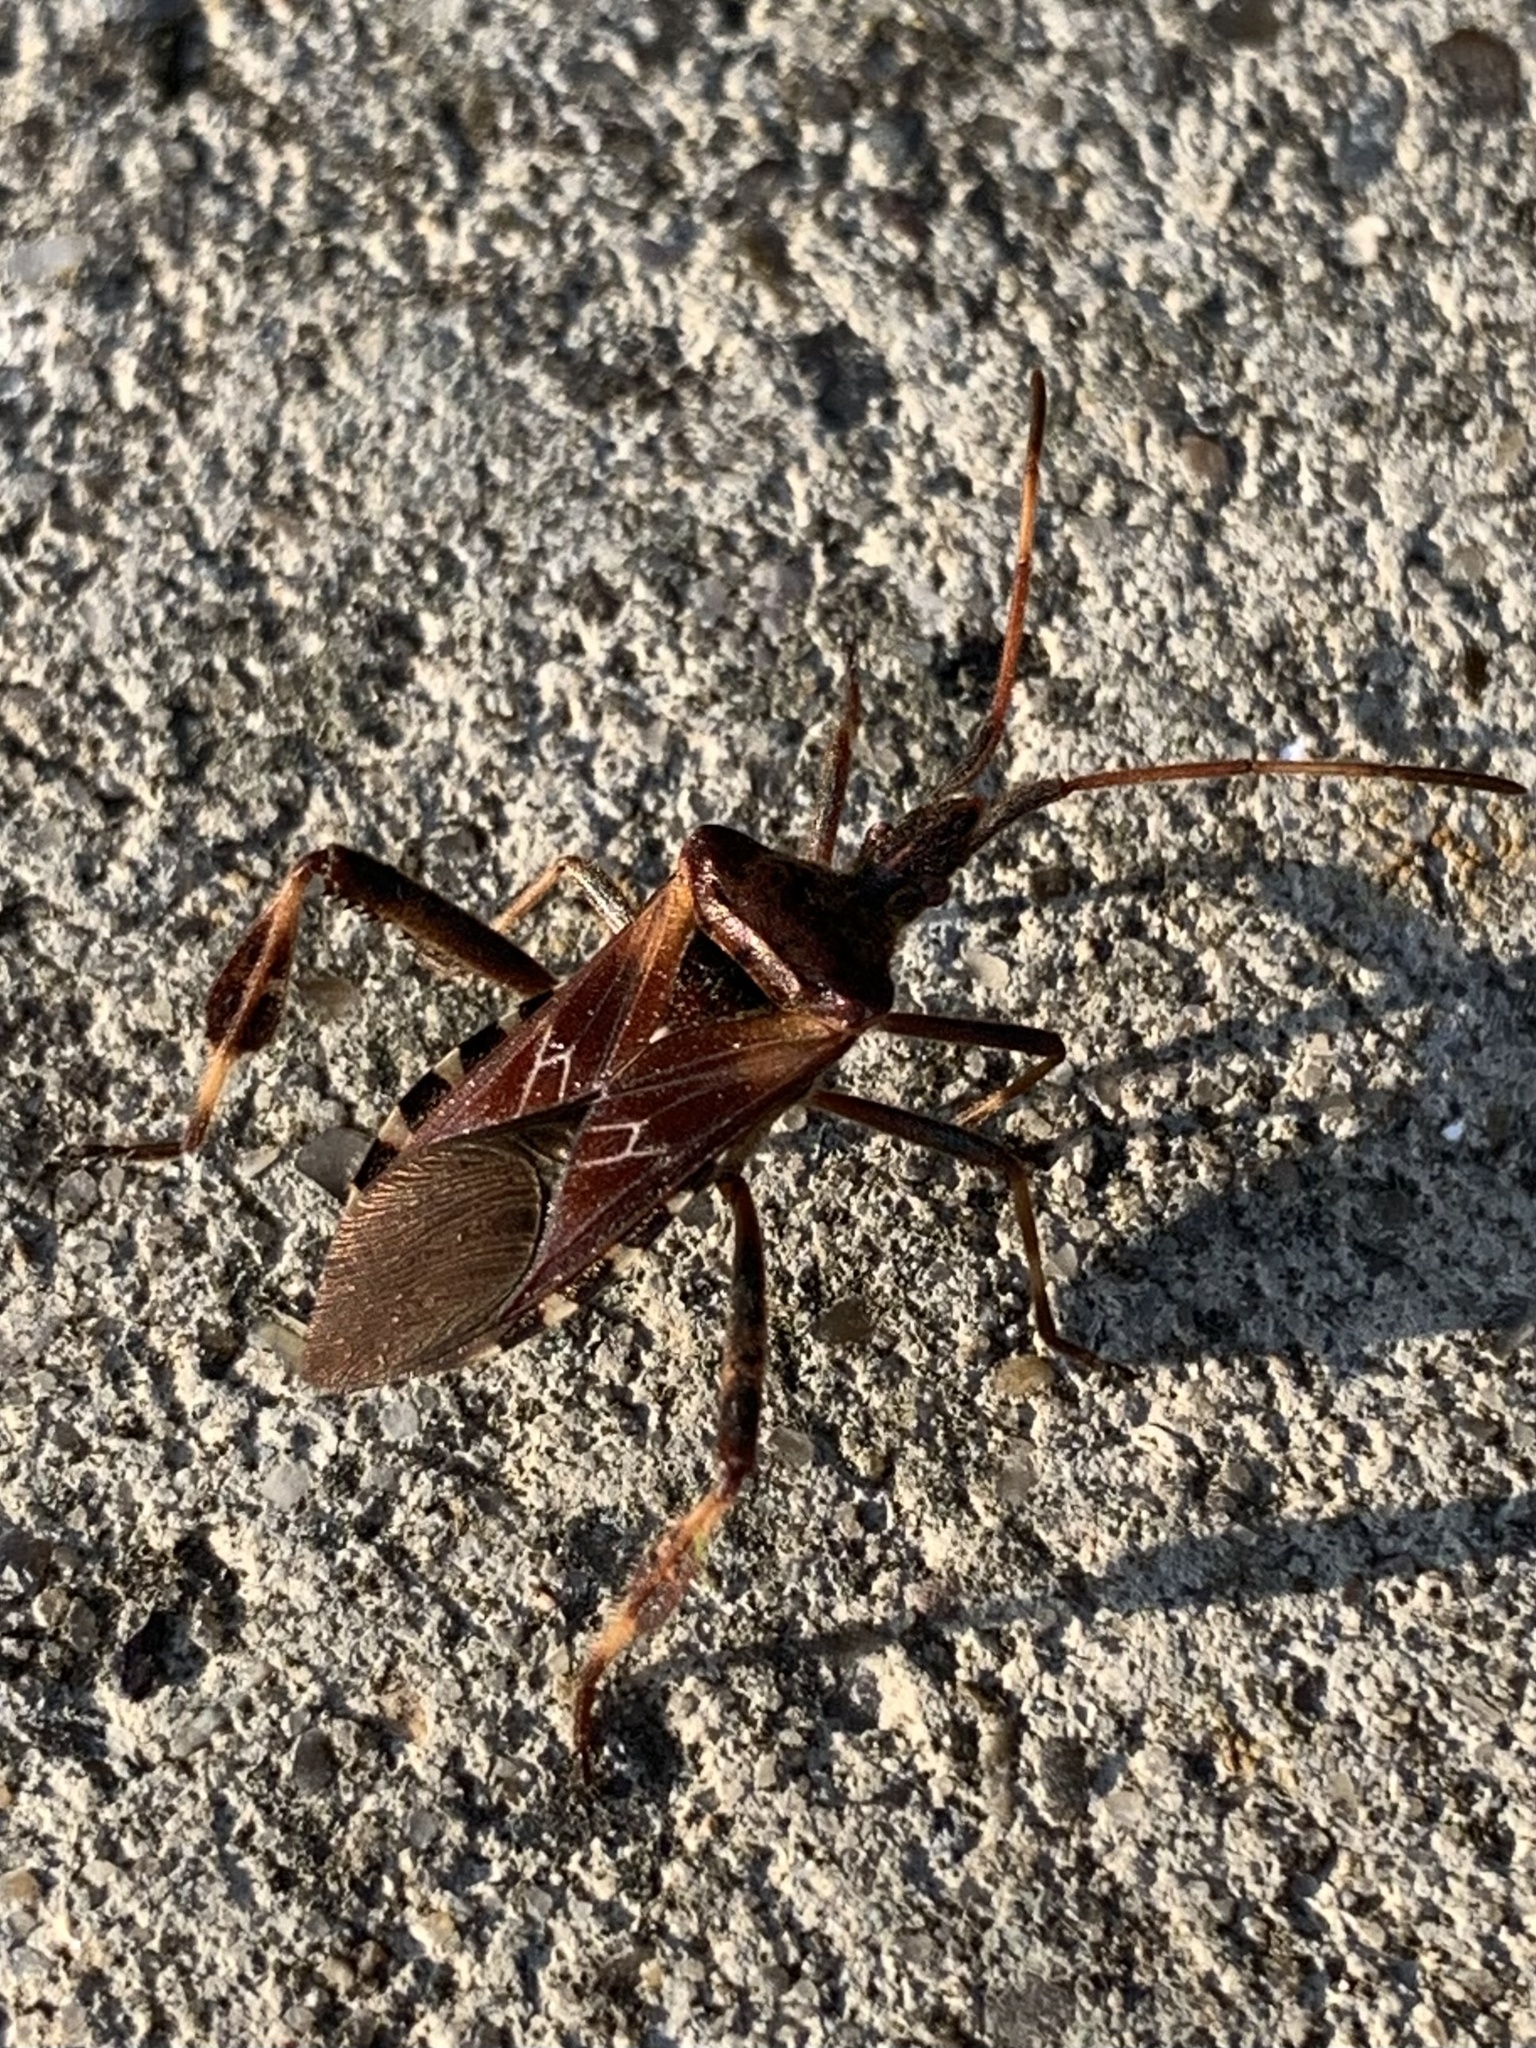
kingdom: Animalia
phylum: Arthropoda
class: Insecta
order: Hemiptera
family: Coreidae
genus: Leptoglossus
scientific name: Leptoglossus occidentalis
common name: Western conifer-seed bug
